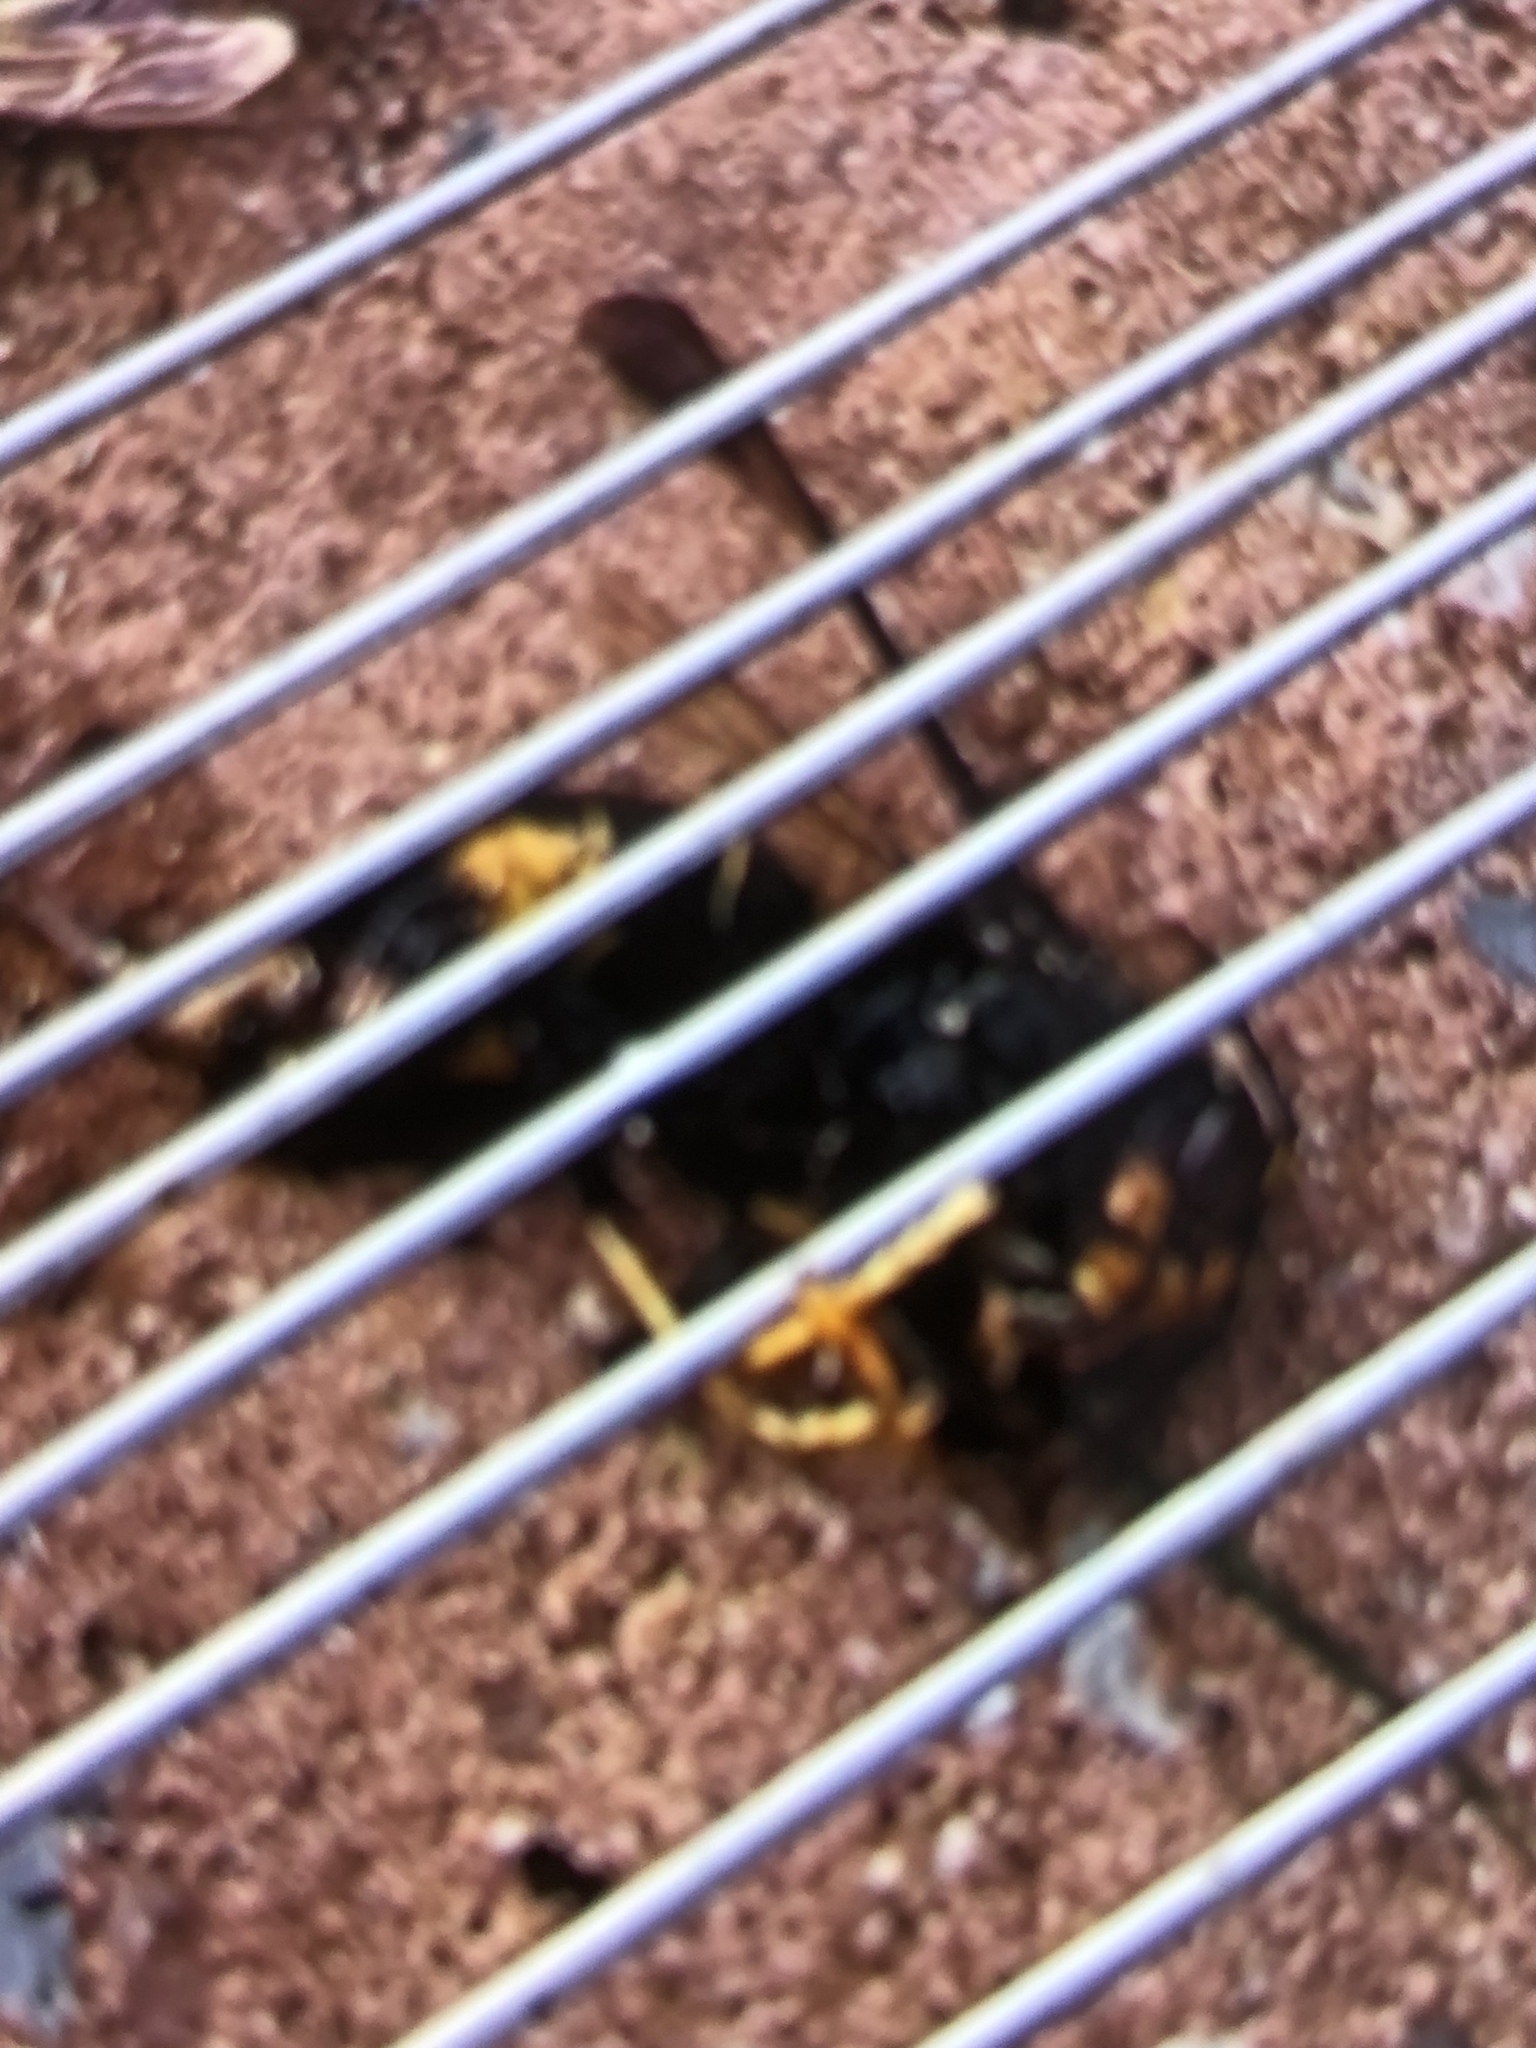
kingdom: Animalia
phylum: Arthropoda
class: Insecta
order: Hymenoptera
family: Vespidae
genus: Vespa
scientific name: Vespa velutina
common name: Asian hornet
